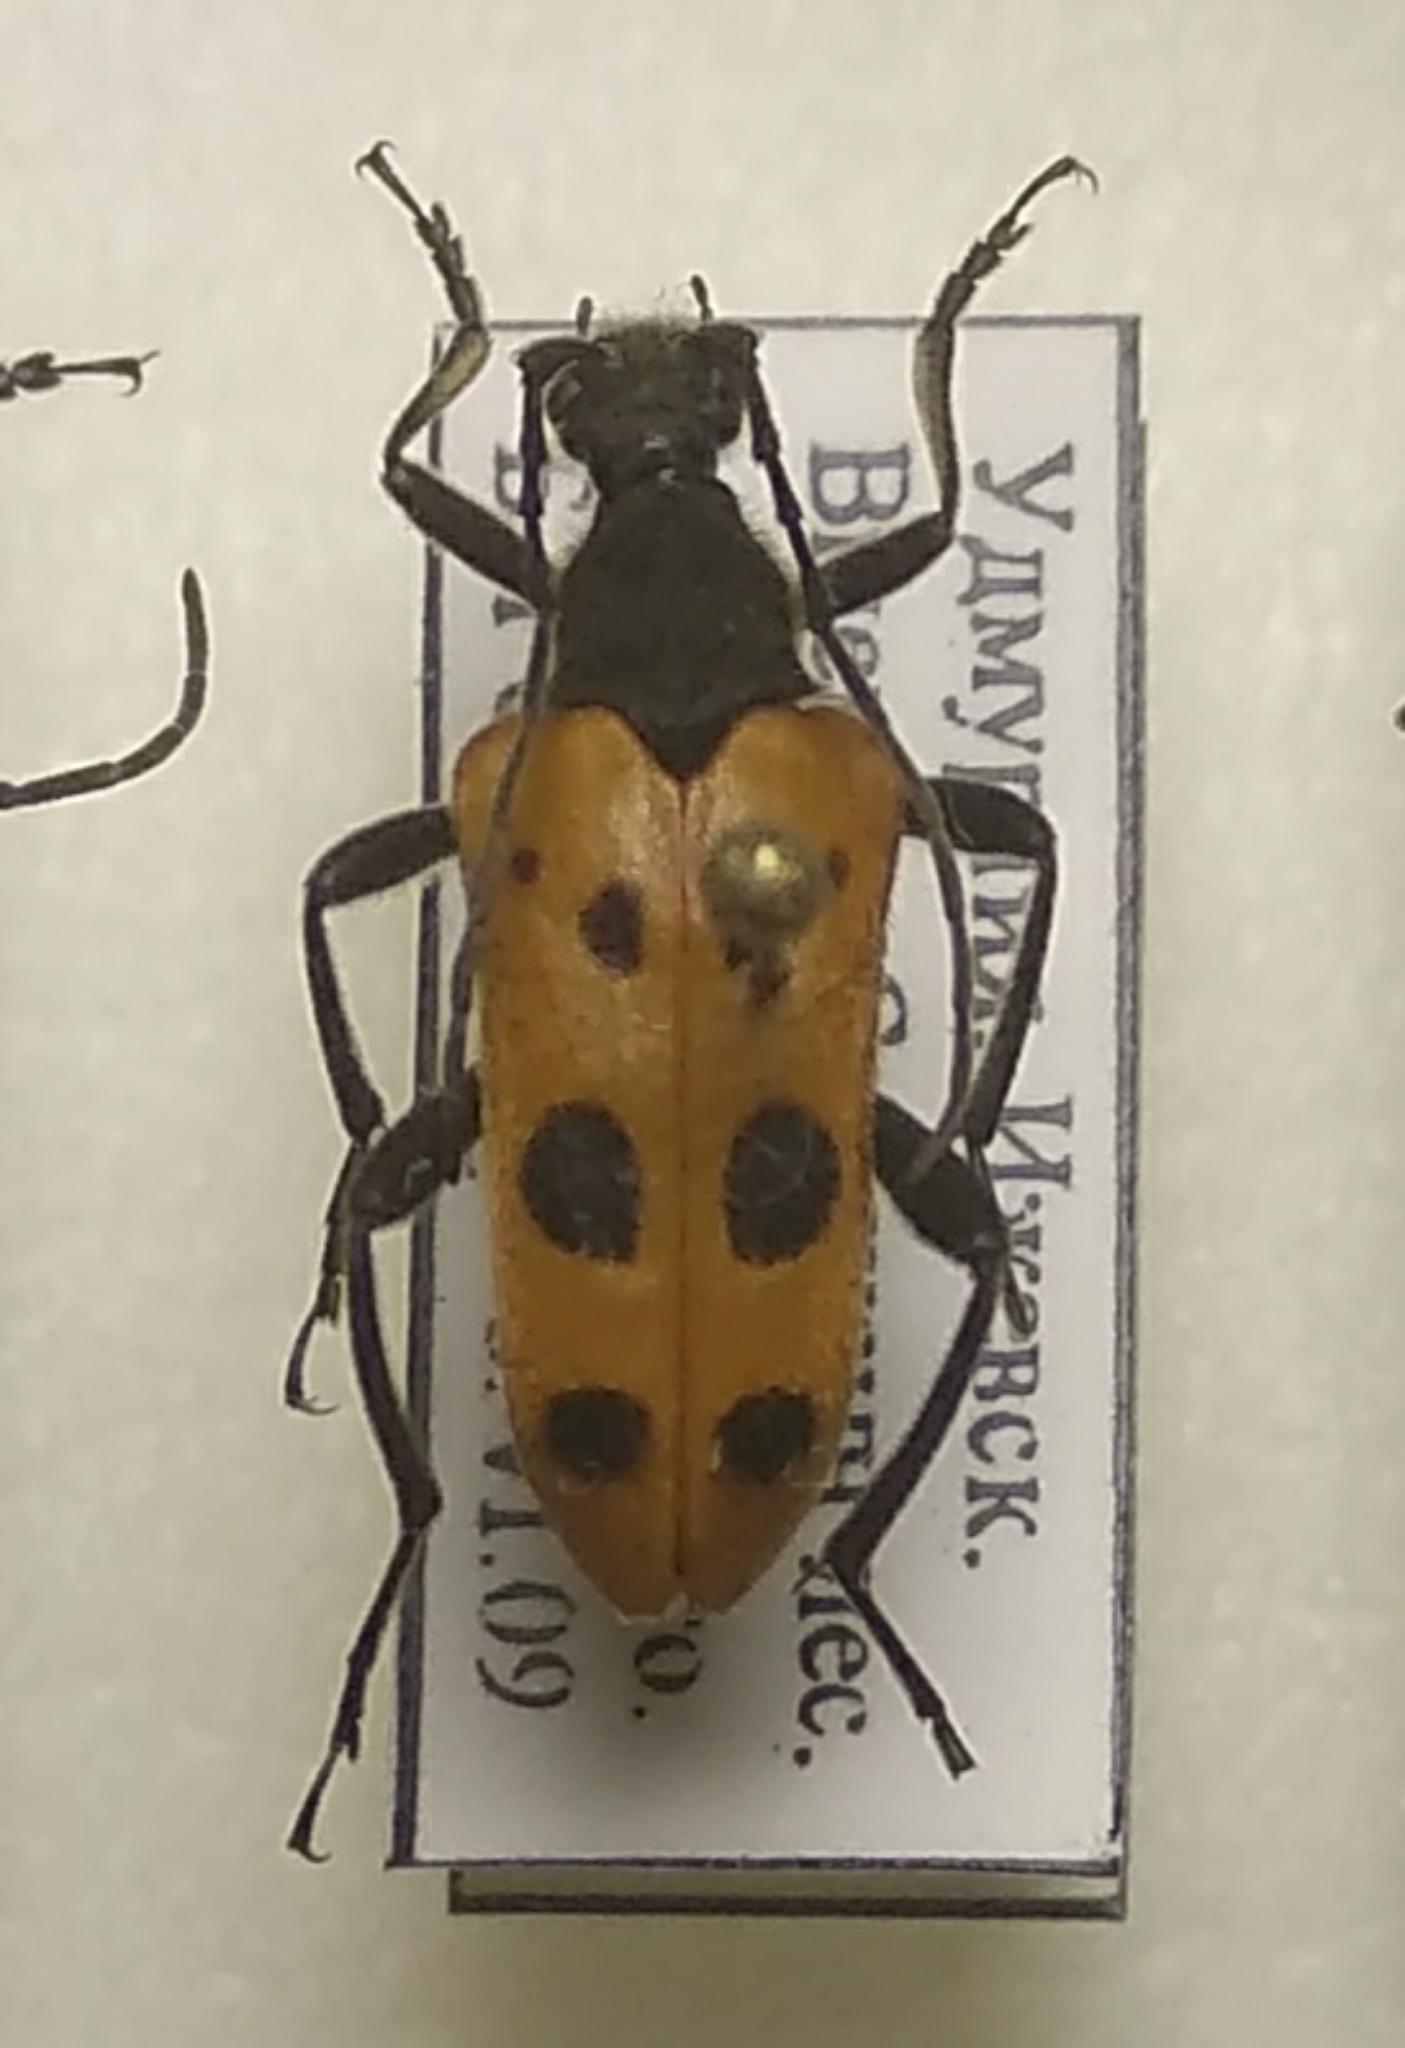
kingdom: Animalia
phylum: Arthropoda
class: Insecta
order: Coleoptera
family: Cerambycidae
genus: Oedecnema
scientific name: Oedecnema gebleri
